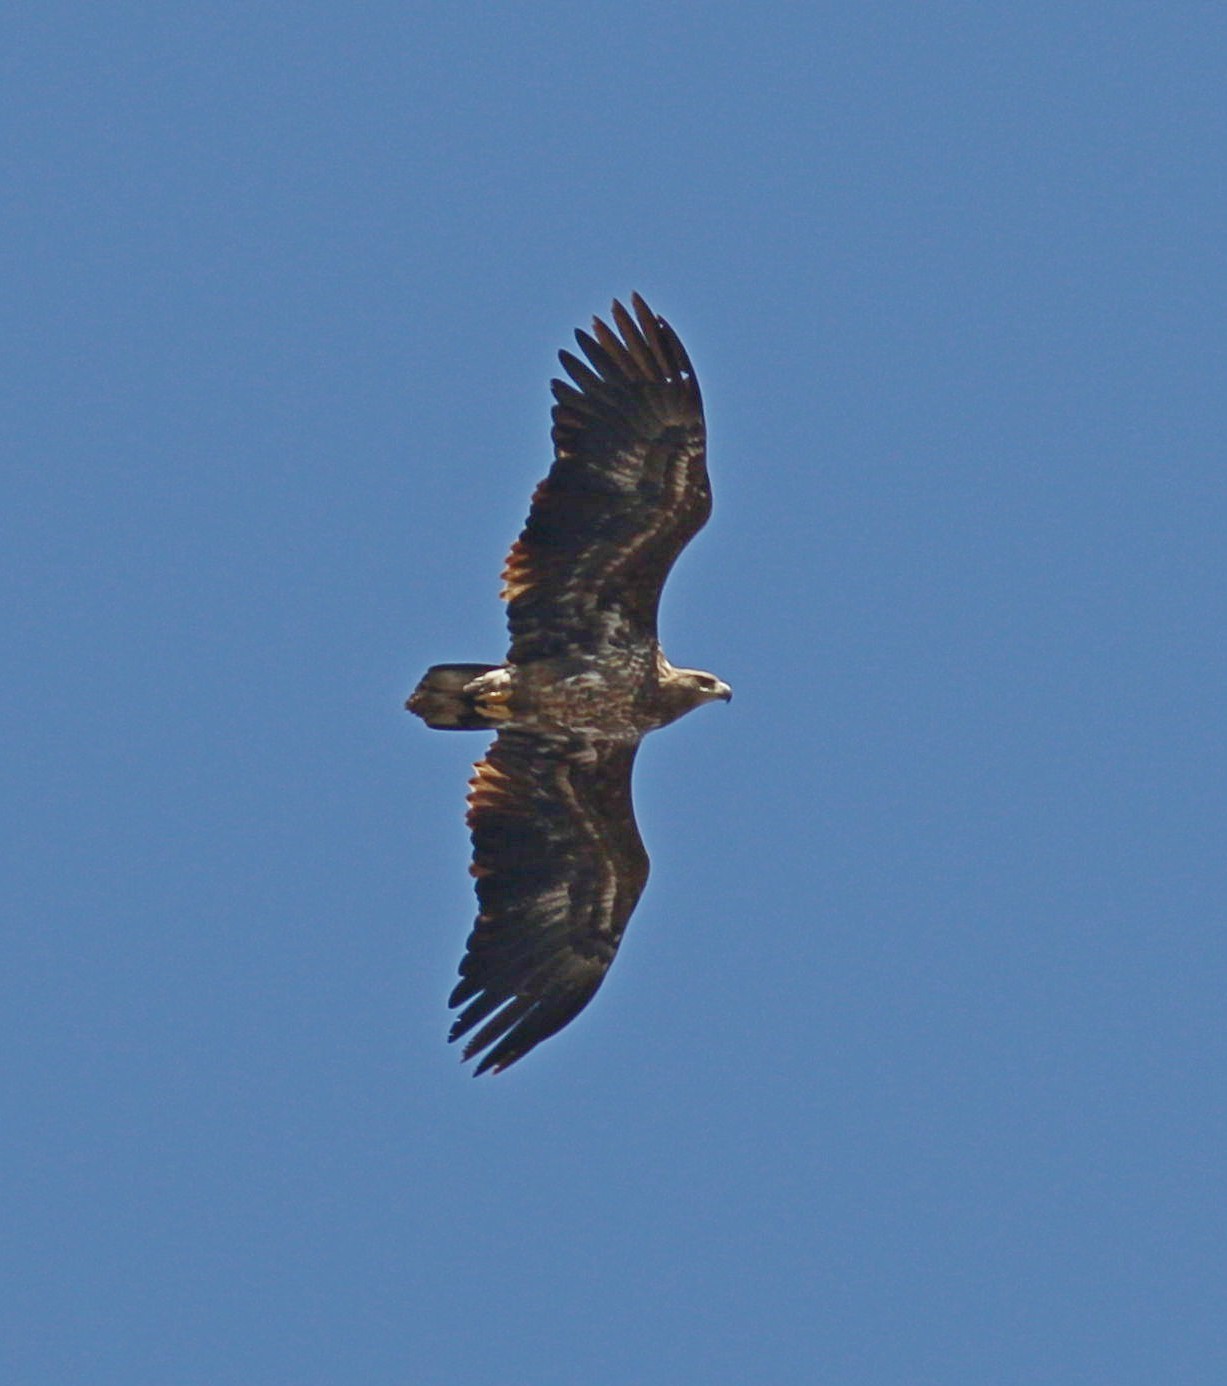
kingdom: Animalia
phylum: Chordata
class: Aves
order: Accipitriformes
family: Accipitridae
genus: Haliaeetus
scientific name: Haliaeetus albicilla
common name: White-tailed eagle
